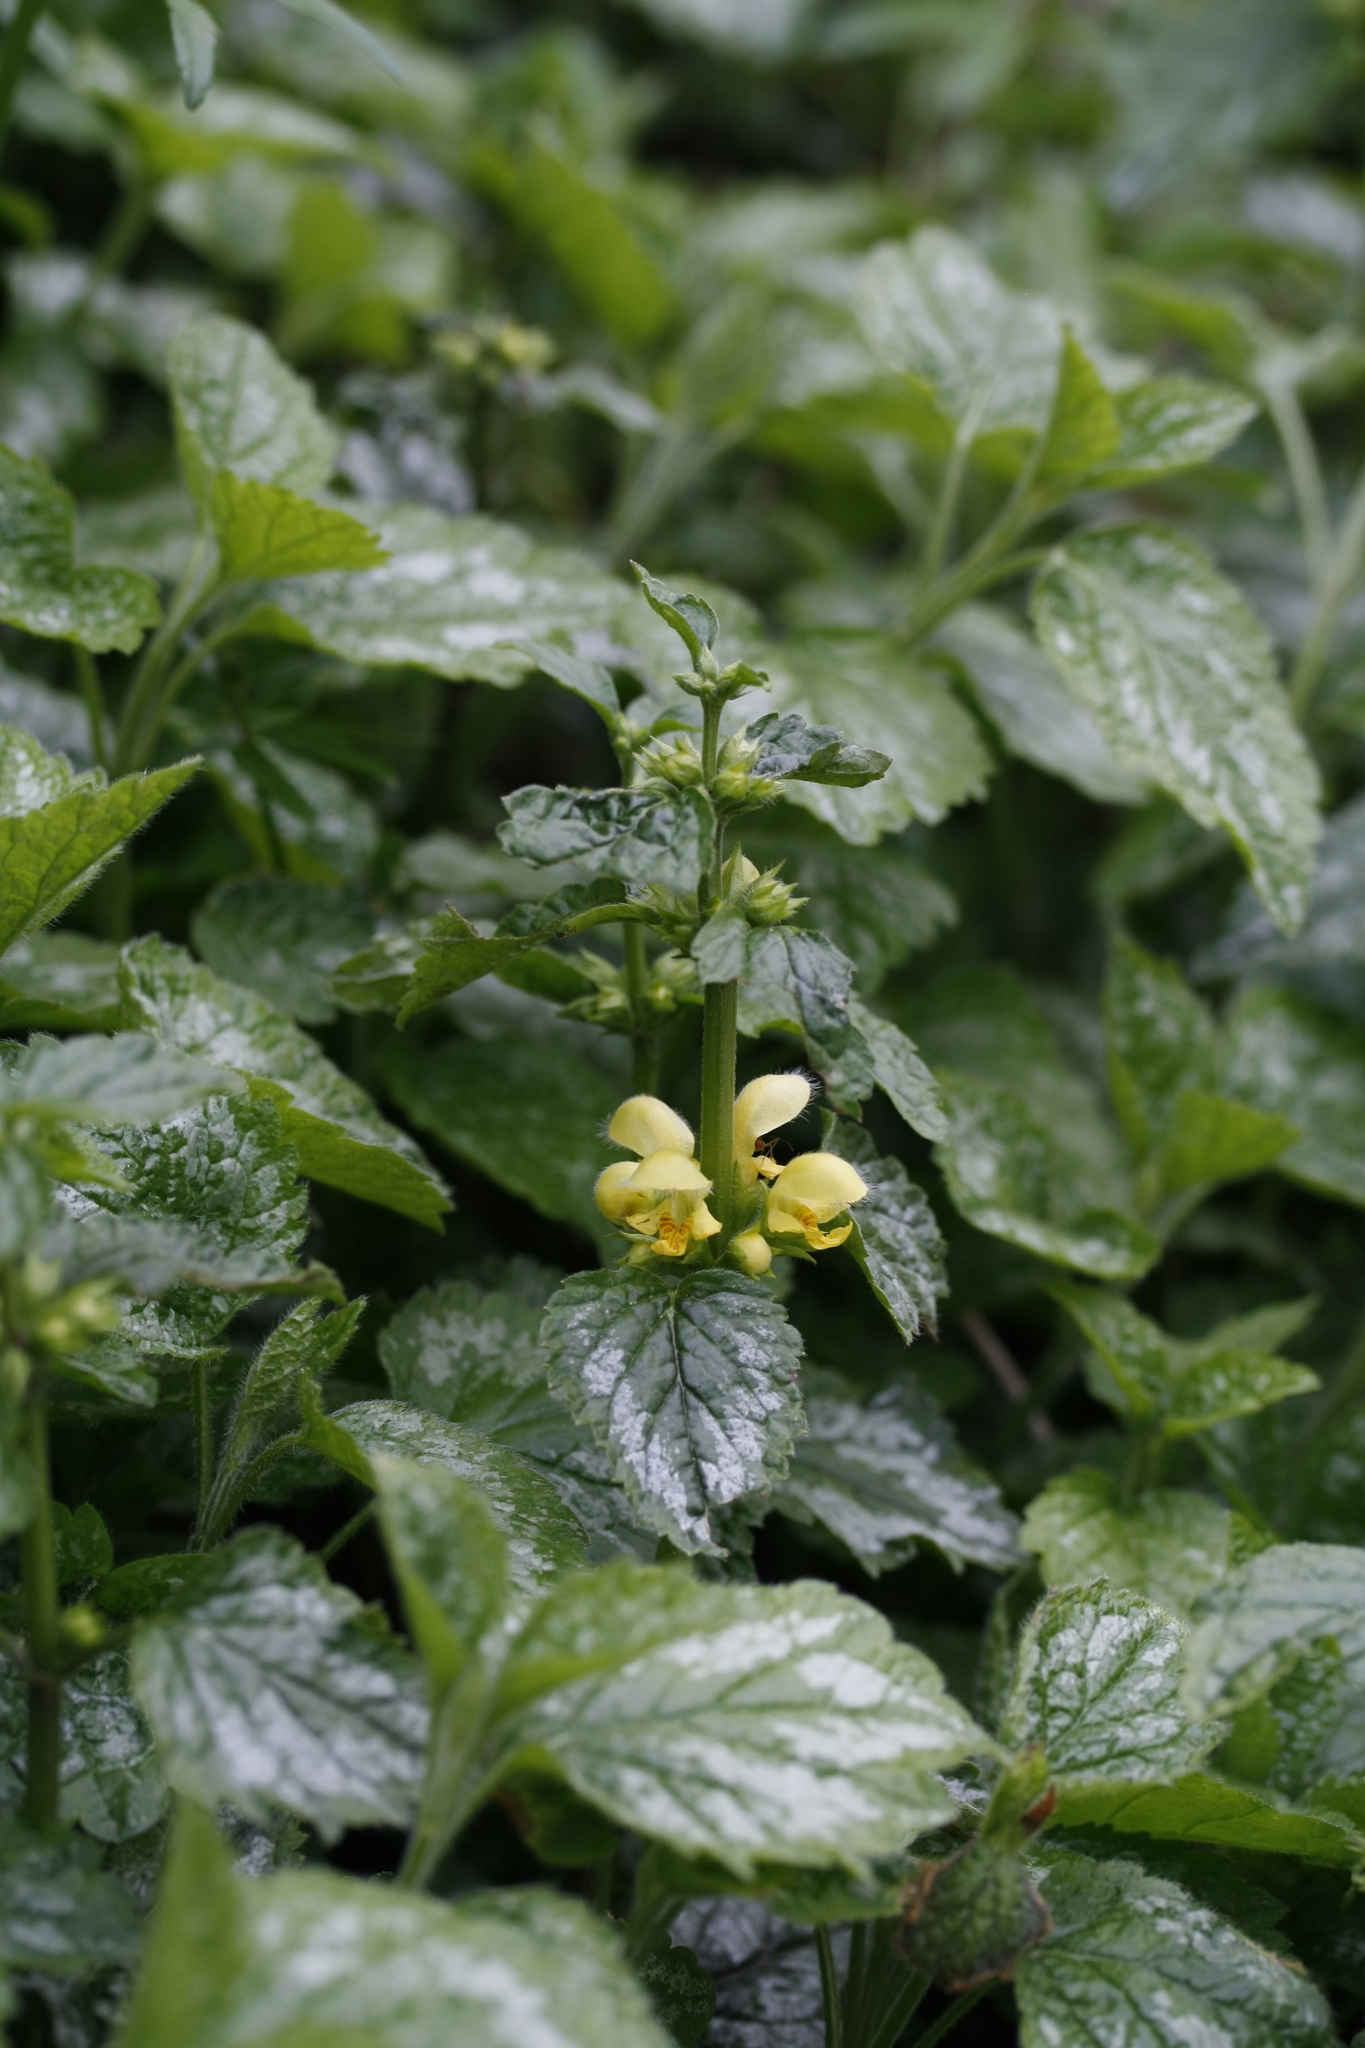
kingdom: Plantae
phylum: Tracheophyta
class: Magnoliopsida
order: Lamiales
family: Lamiaceae
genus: Lamium
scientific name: Lamium galeobdolon
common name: Yellow archangel
